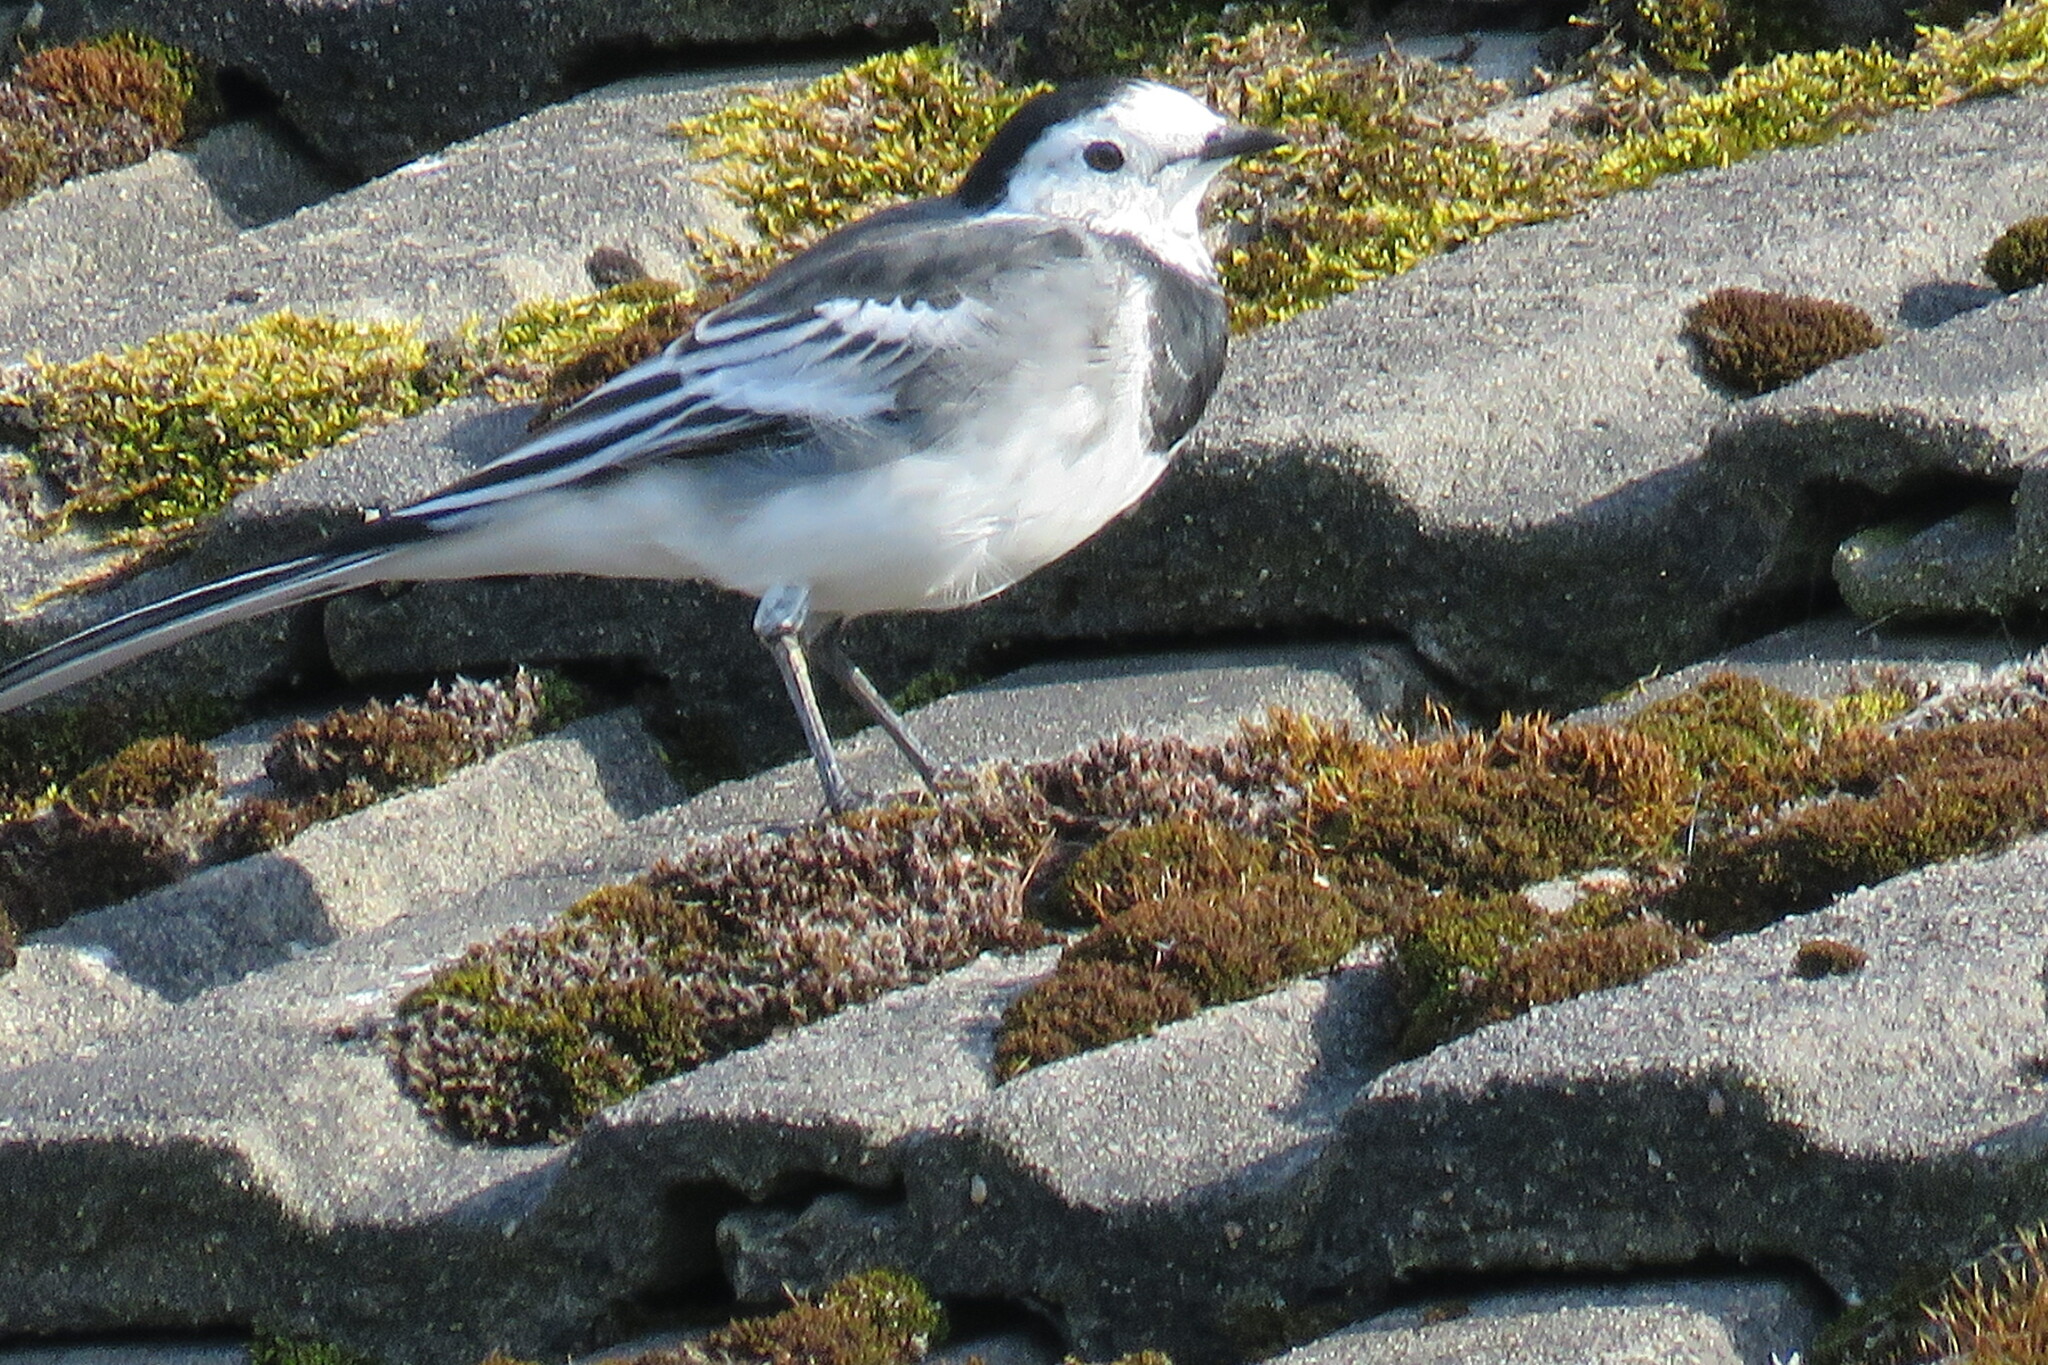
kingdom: Animalia
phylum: Chordata
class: Aves
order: Passeriformes
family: Motacillidae
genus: Motacilla
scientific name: Motacilla alba
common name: White wagtail
